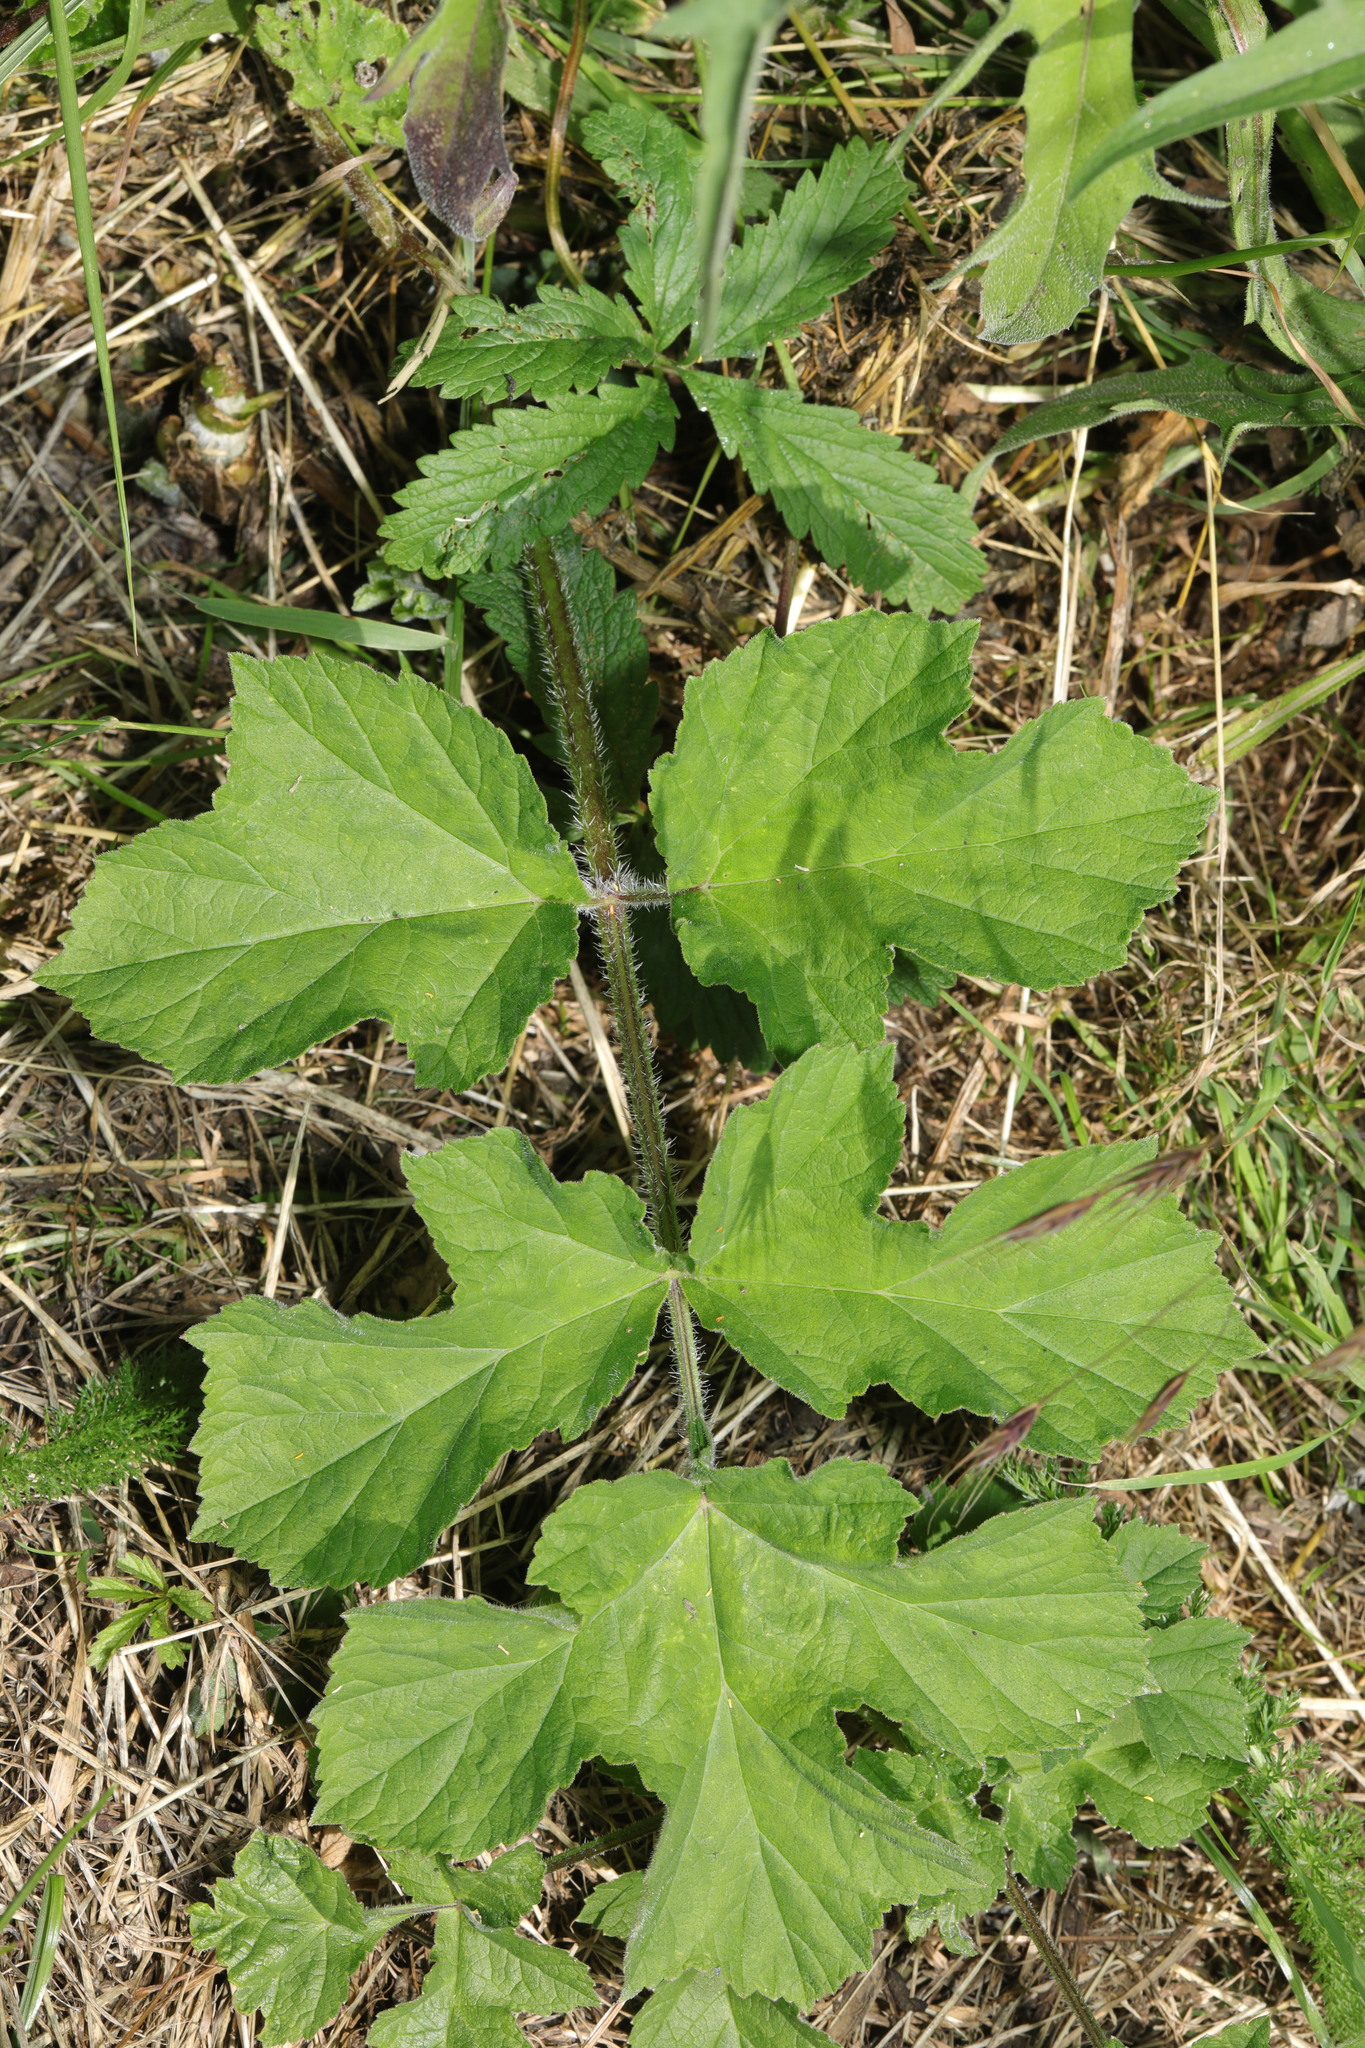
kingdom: Plantae
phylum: Tracheophyta
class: Magnoliopsida
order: Apiales
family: Apiaceae
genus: Heracleum
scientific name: Heracleum sphondylium
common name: Hogweed
